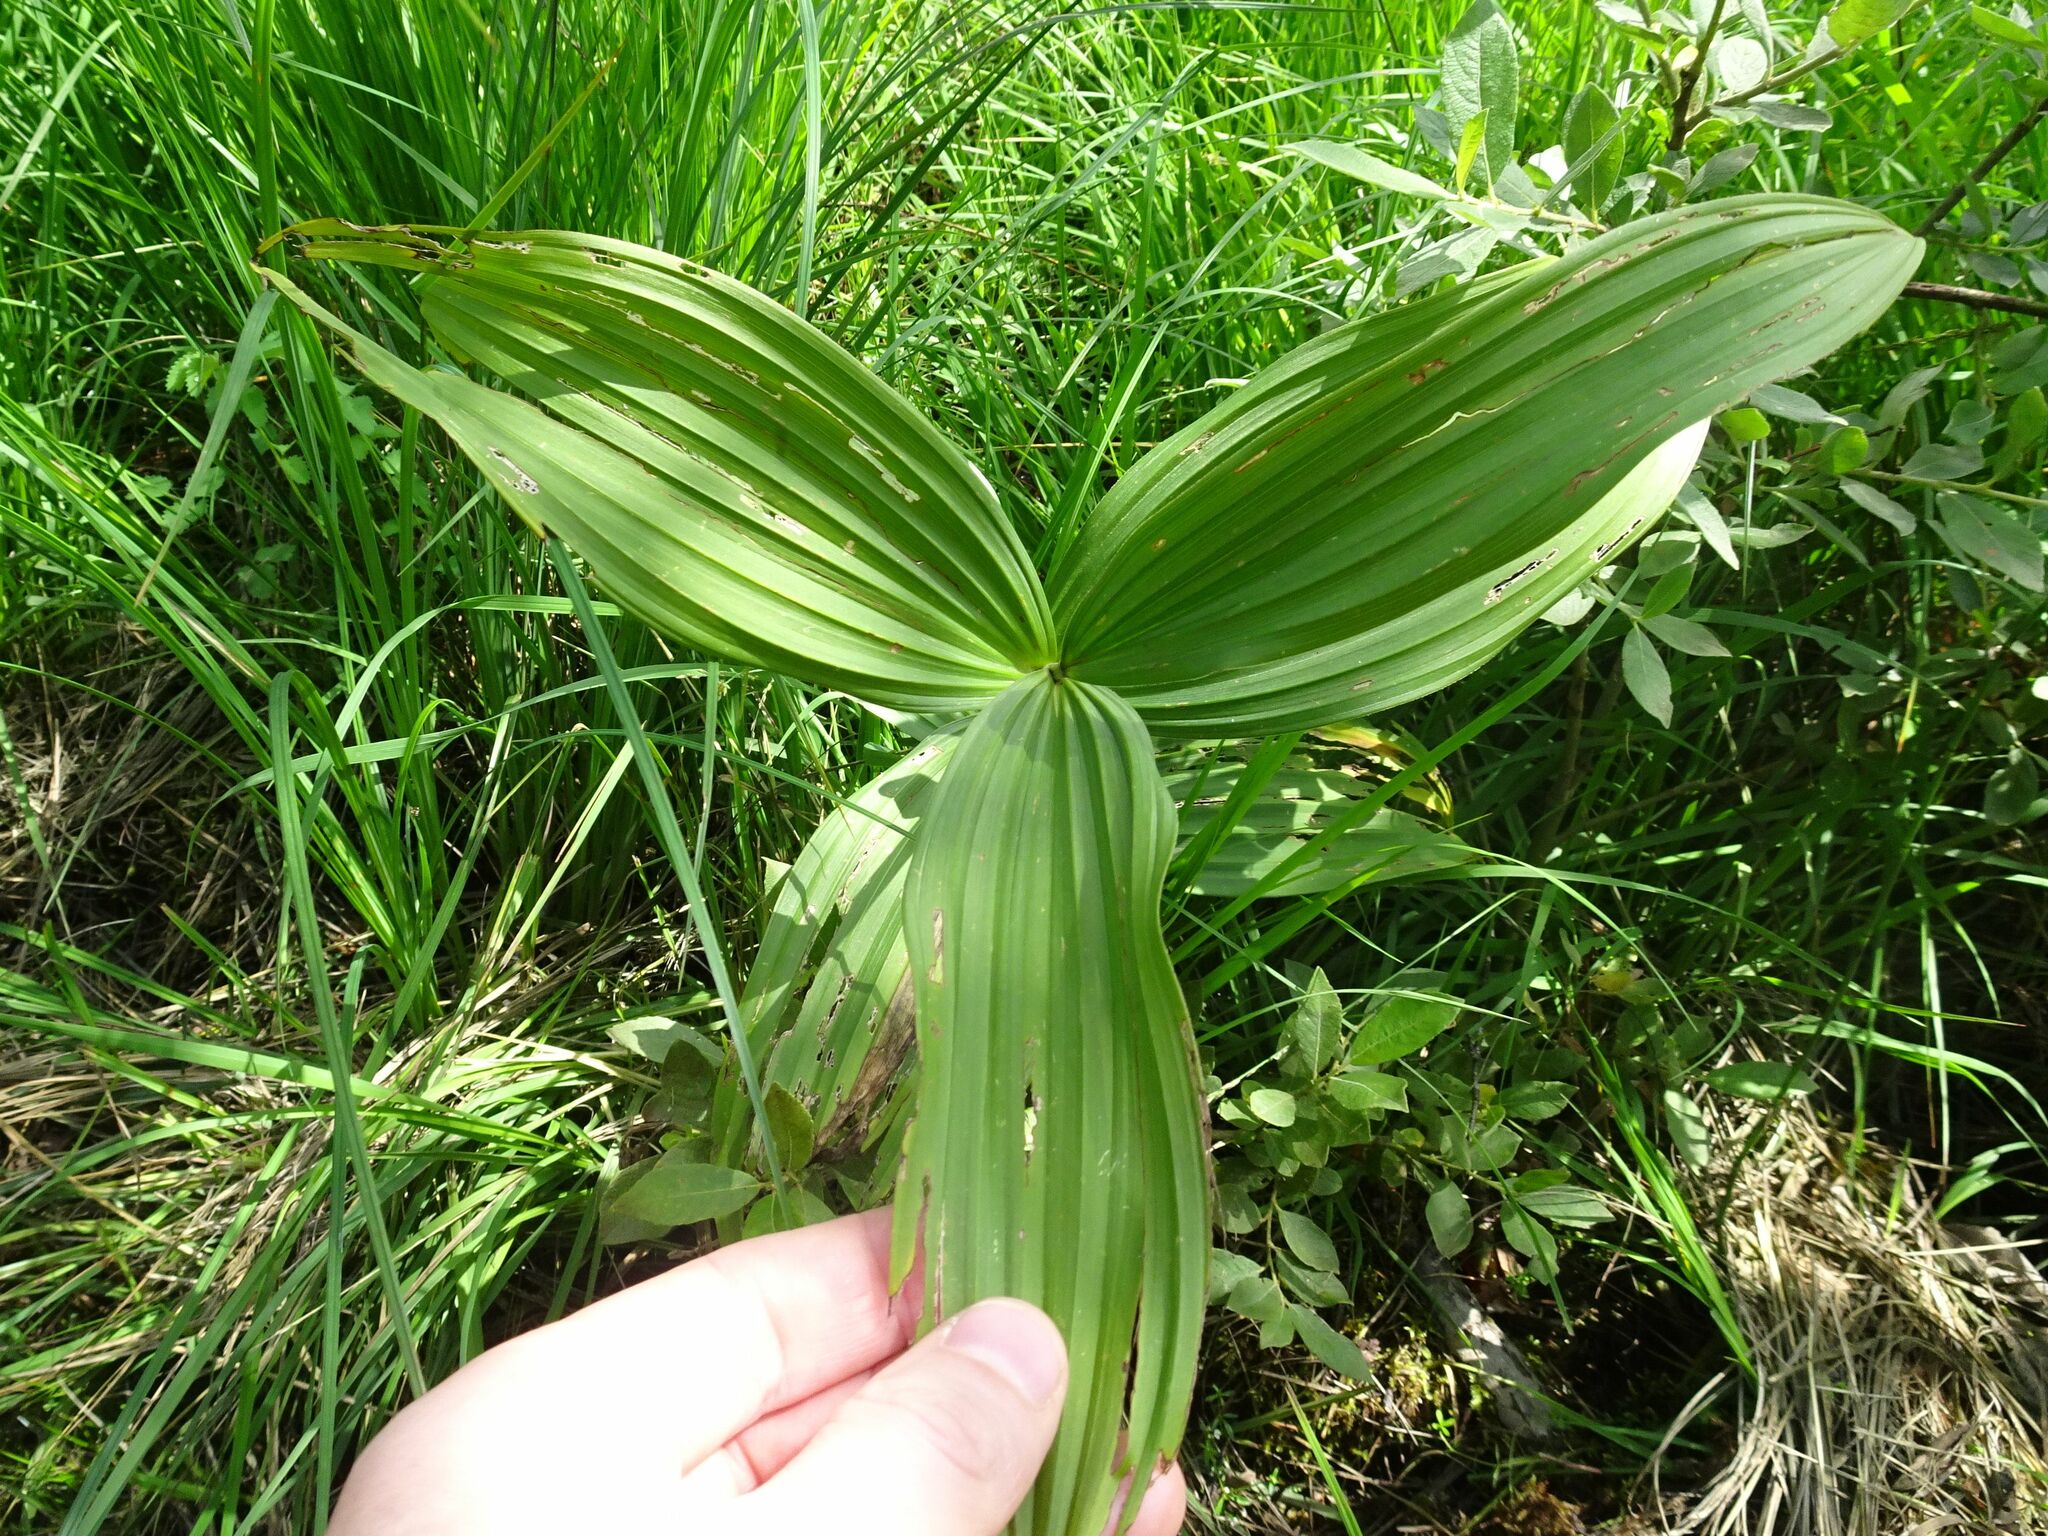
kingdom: Plantae
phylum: Tracheophyta
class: Liliopsida
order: Liliales
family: Melanthiaceae
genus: Veratrum
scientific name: Veratrum album
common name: White veratrum
